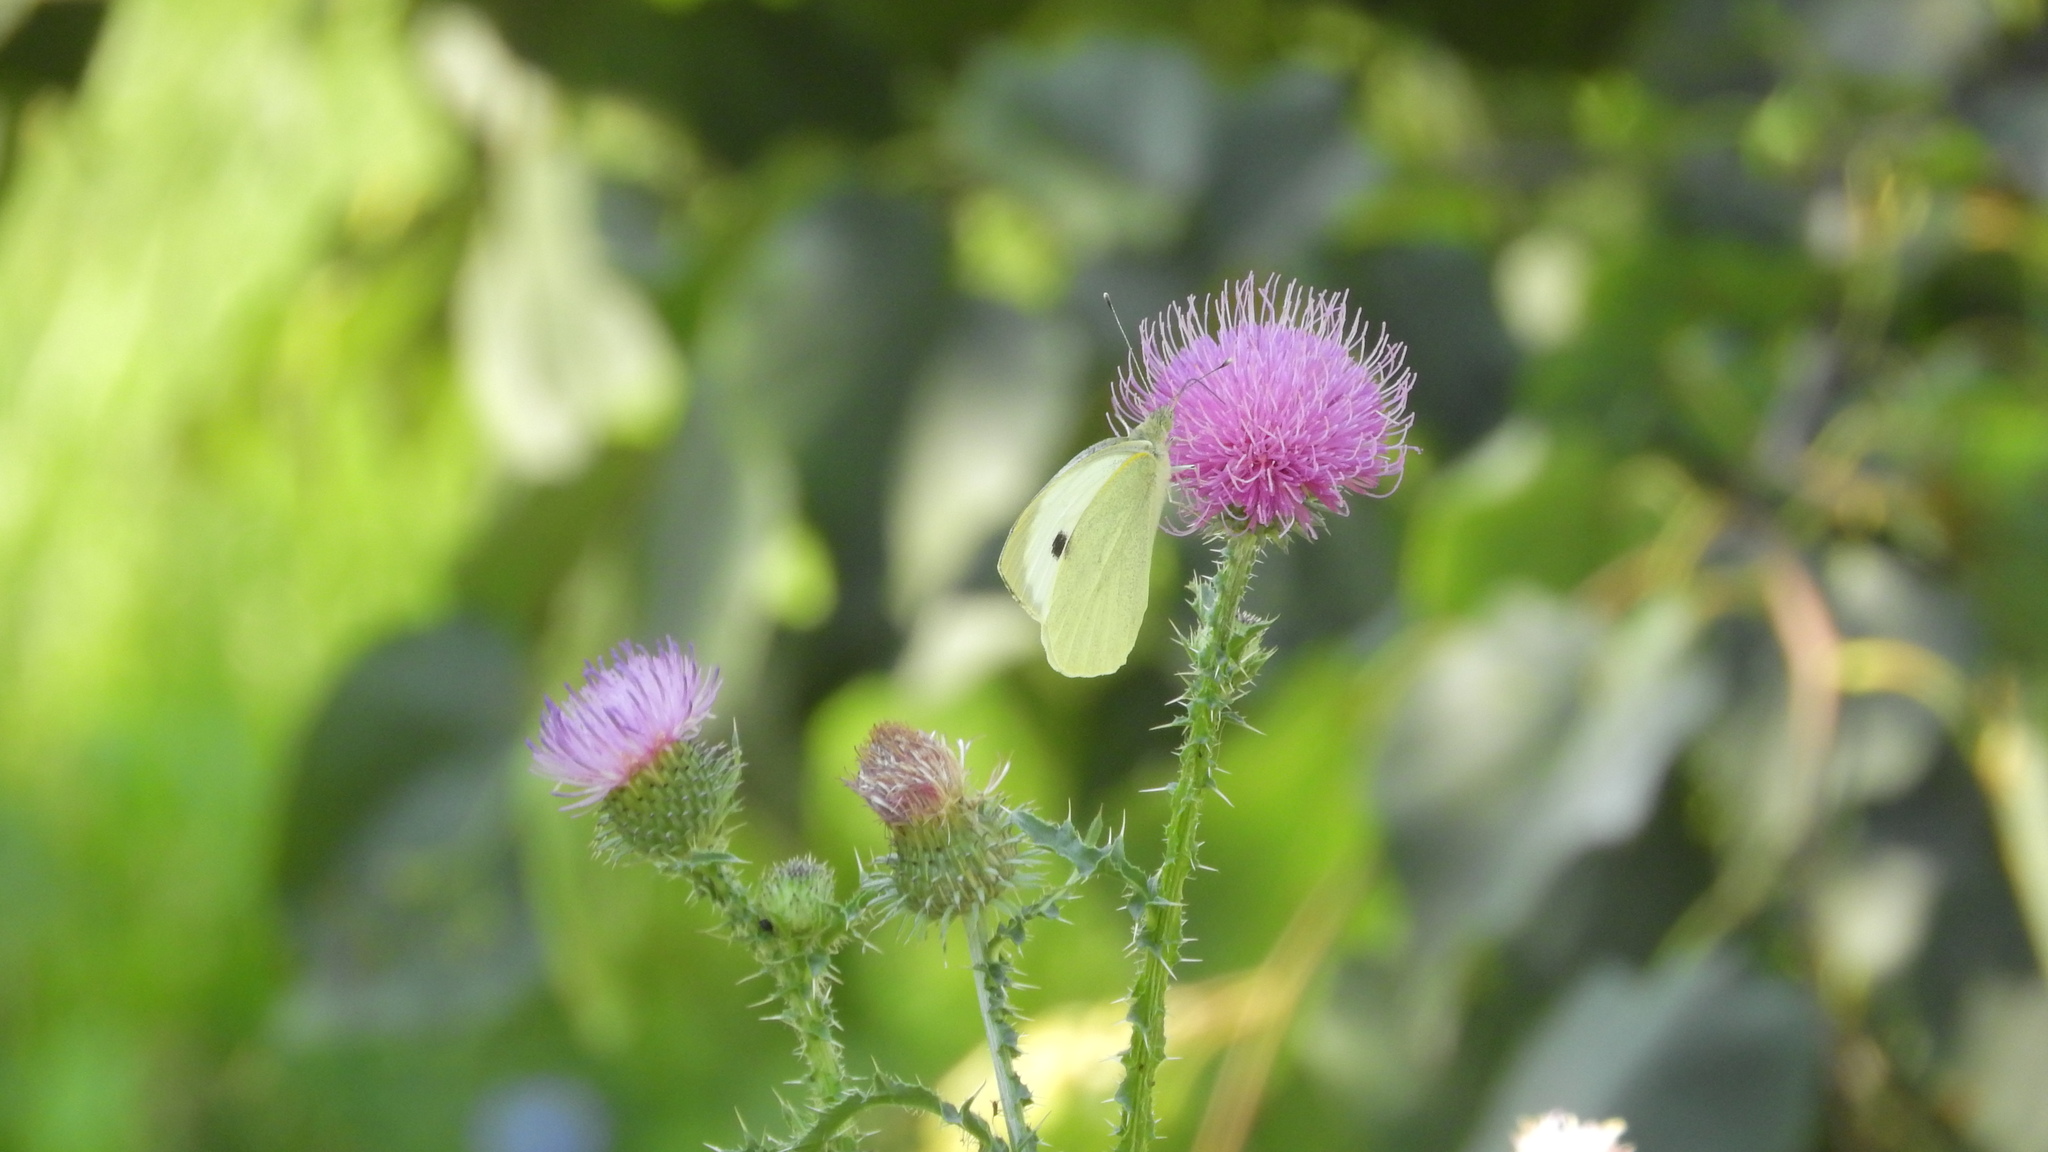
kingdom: Animalia
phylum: Arthropoda
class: Insecta
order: Lepidoptera
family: Pieridae
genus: Pieris
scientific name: Pieris brassicae
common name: Large white
